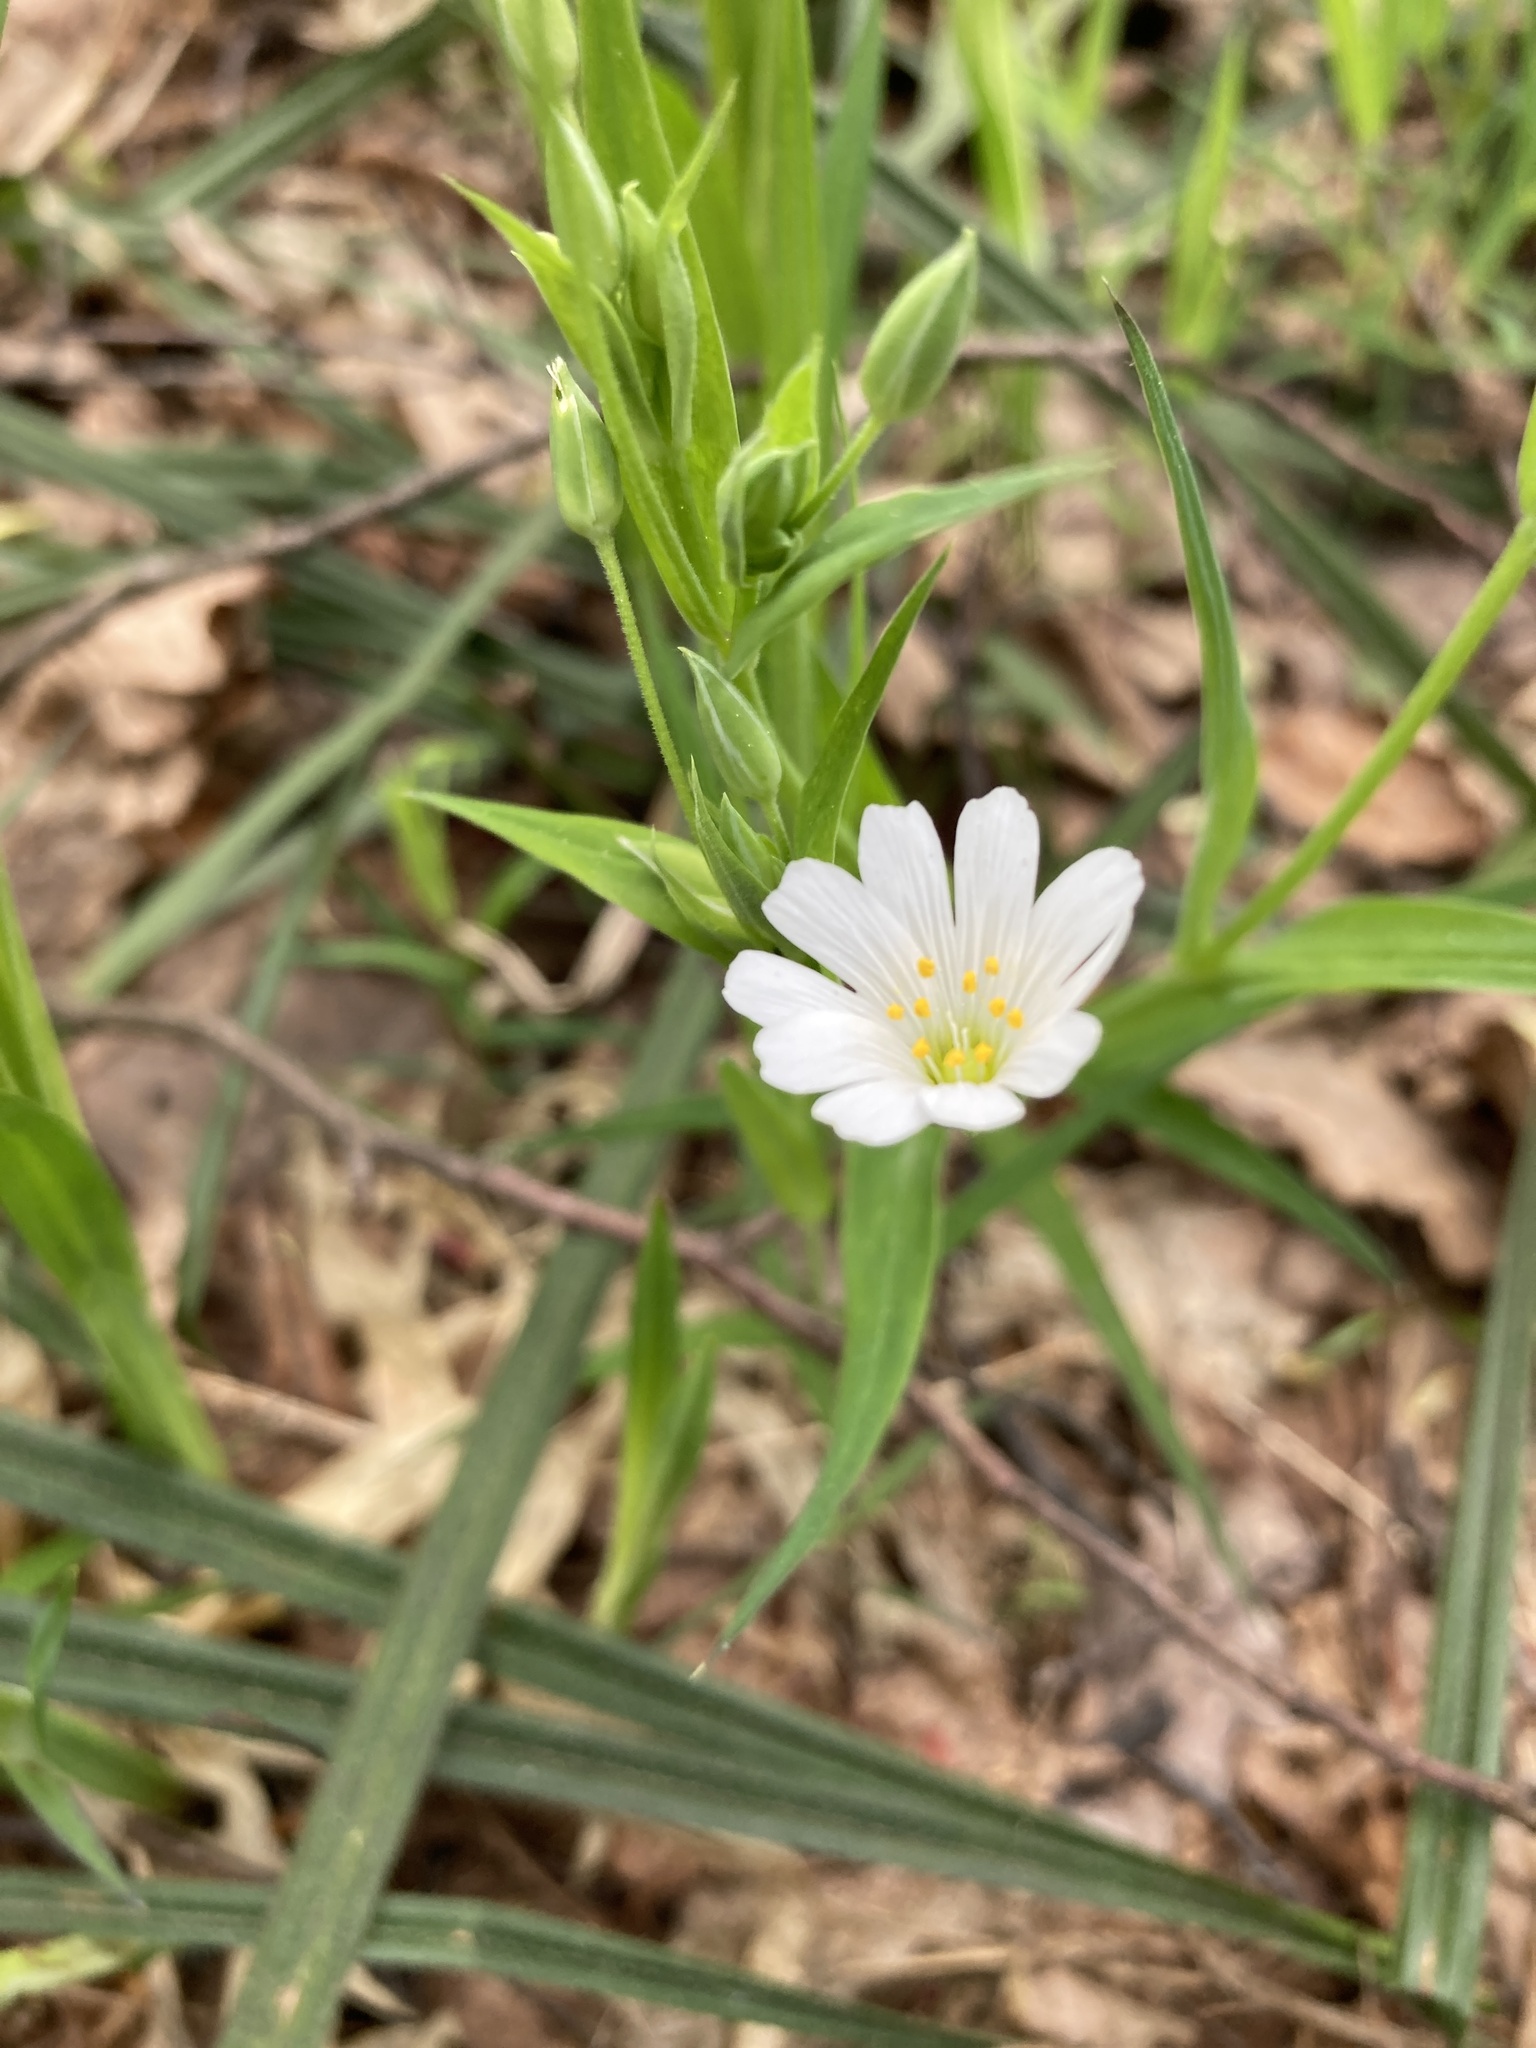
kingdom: Plantae
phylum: Tracheophyta
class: Magnoliopsida
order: Caryophyllales
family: Caryophyllaceae
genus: Rabelera
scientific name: Rabelera holostea
